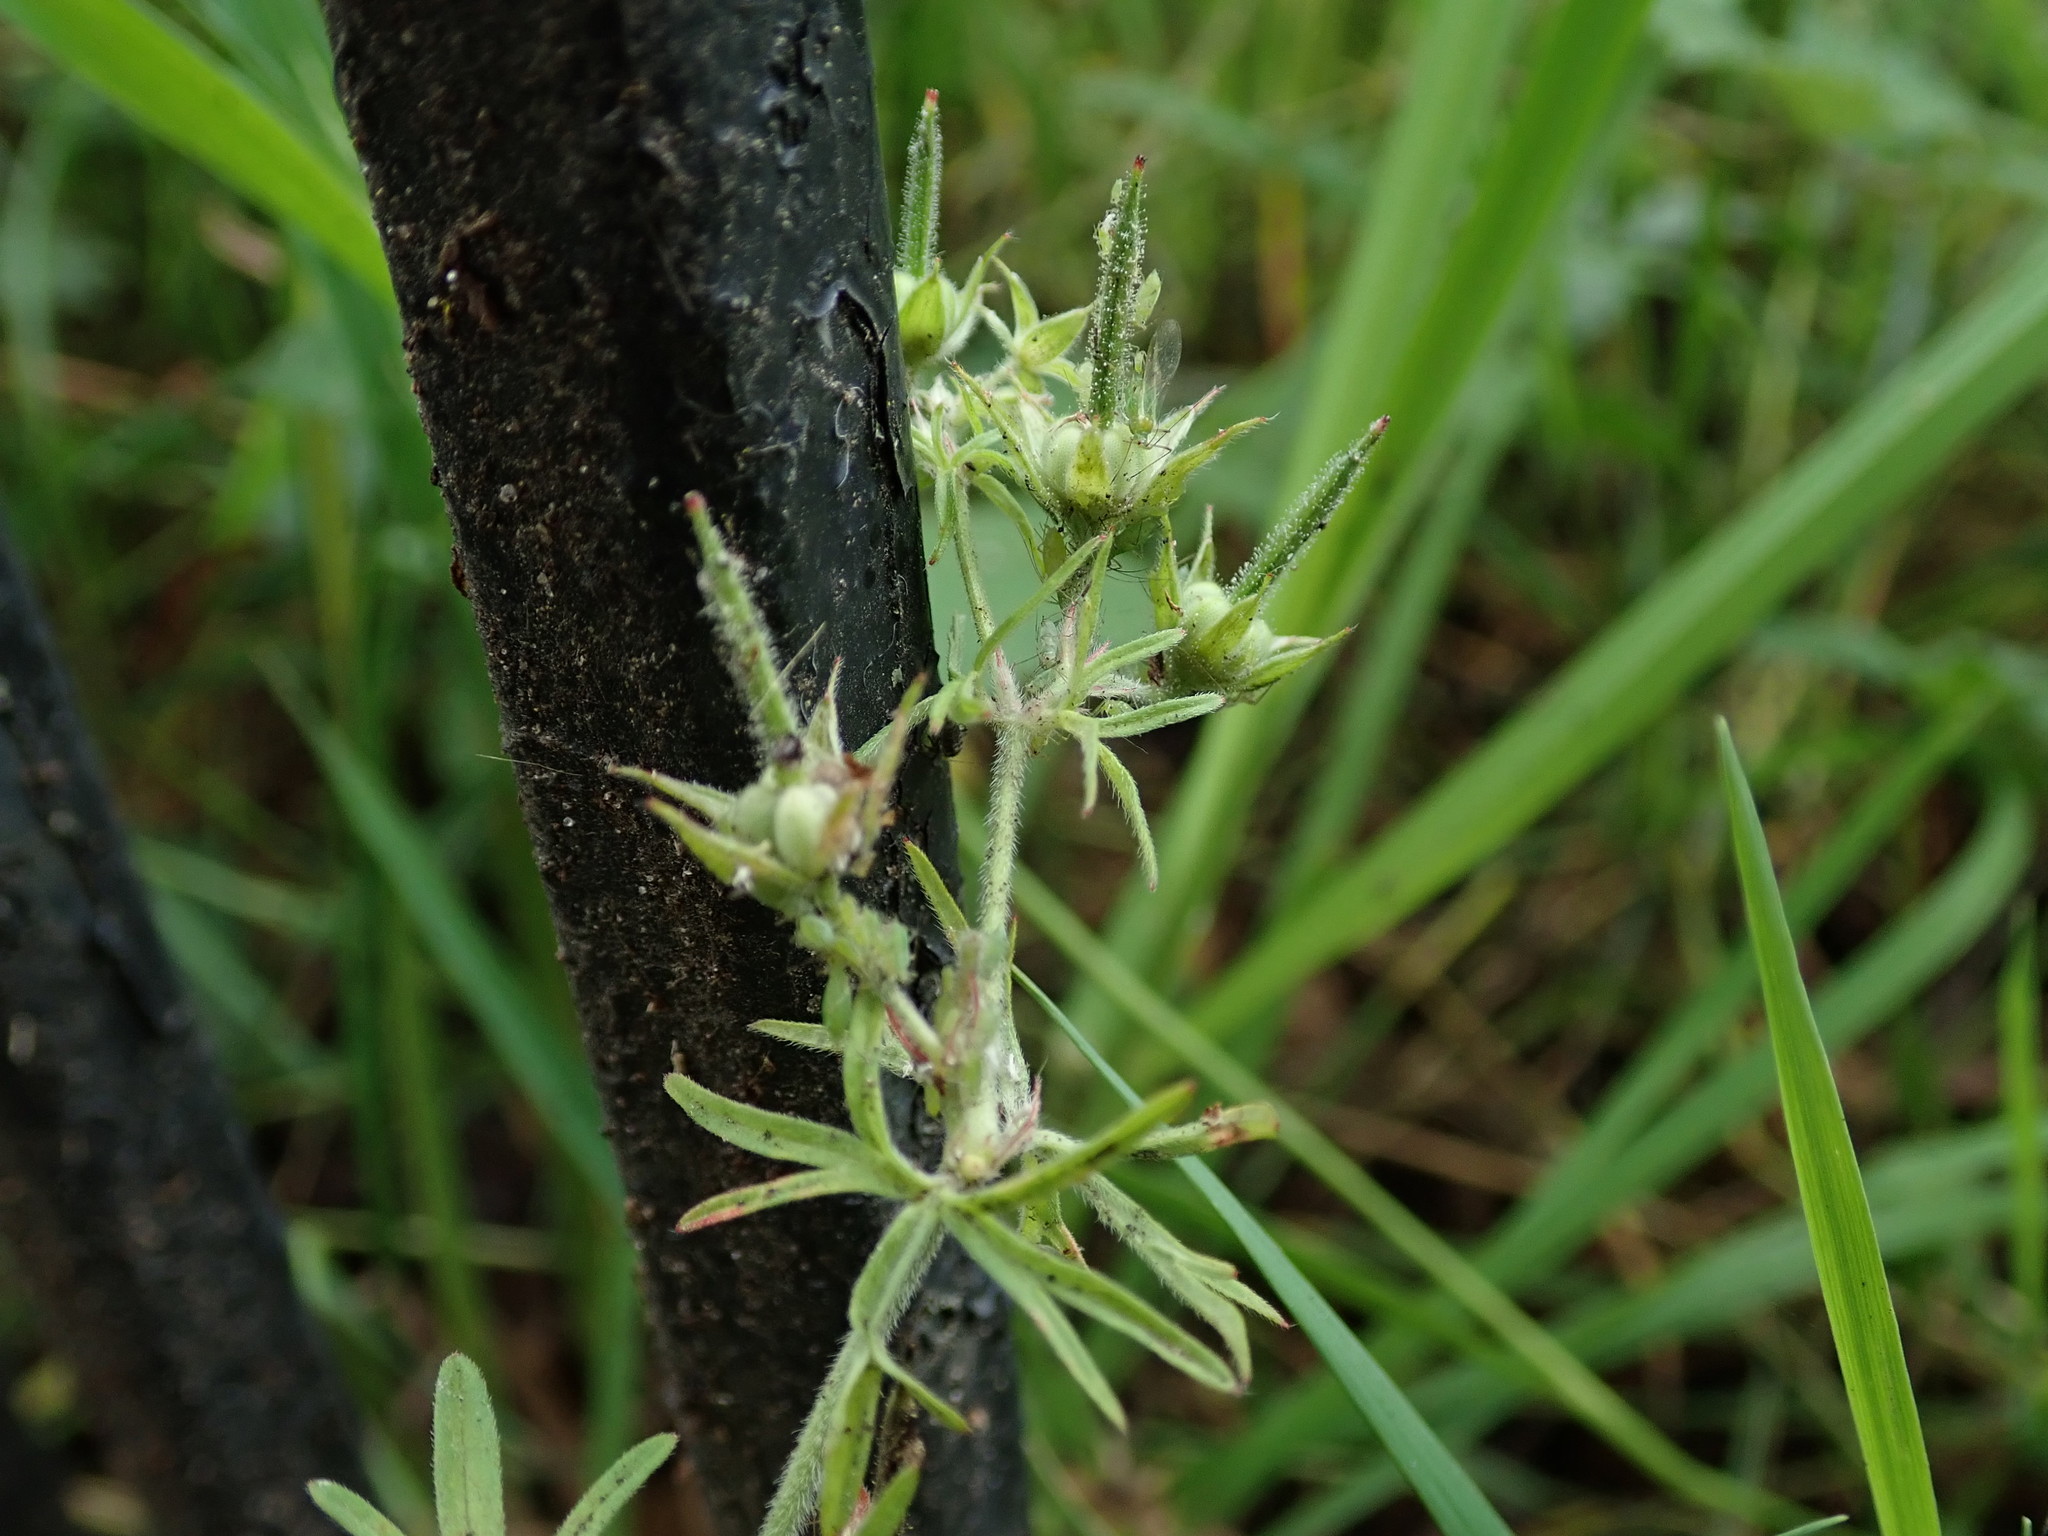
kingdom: Plantae
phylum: Tracheophyta
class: Magnoliopsida
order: Geraniales
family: Geraniaceae
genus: Geranium
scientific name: Geranium dissectum
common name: Cut-leaved crane's-bill
